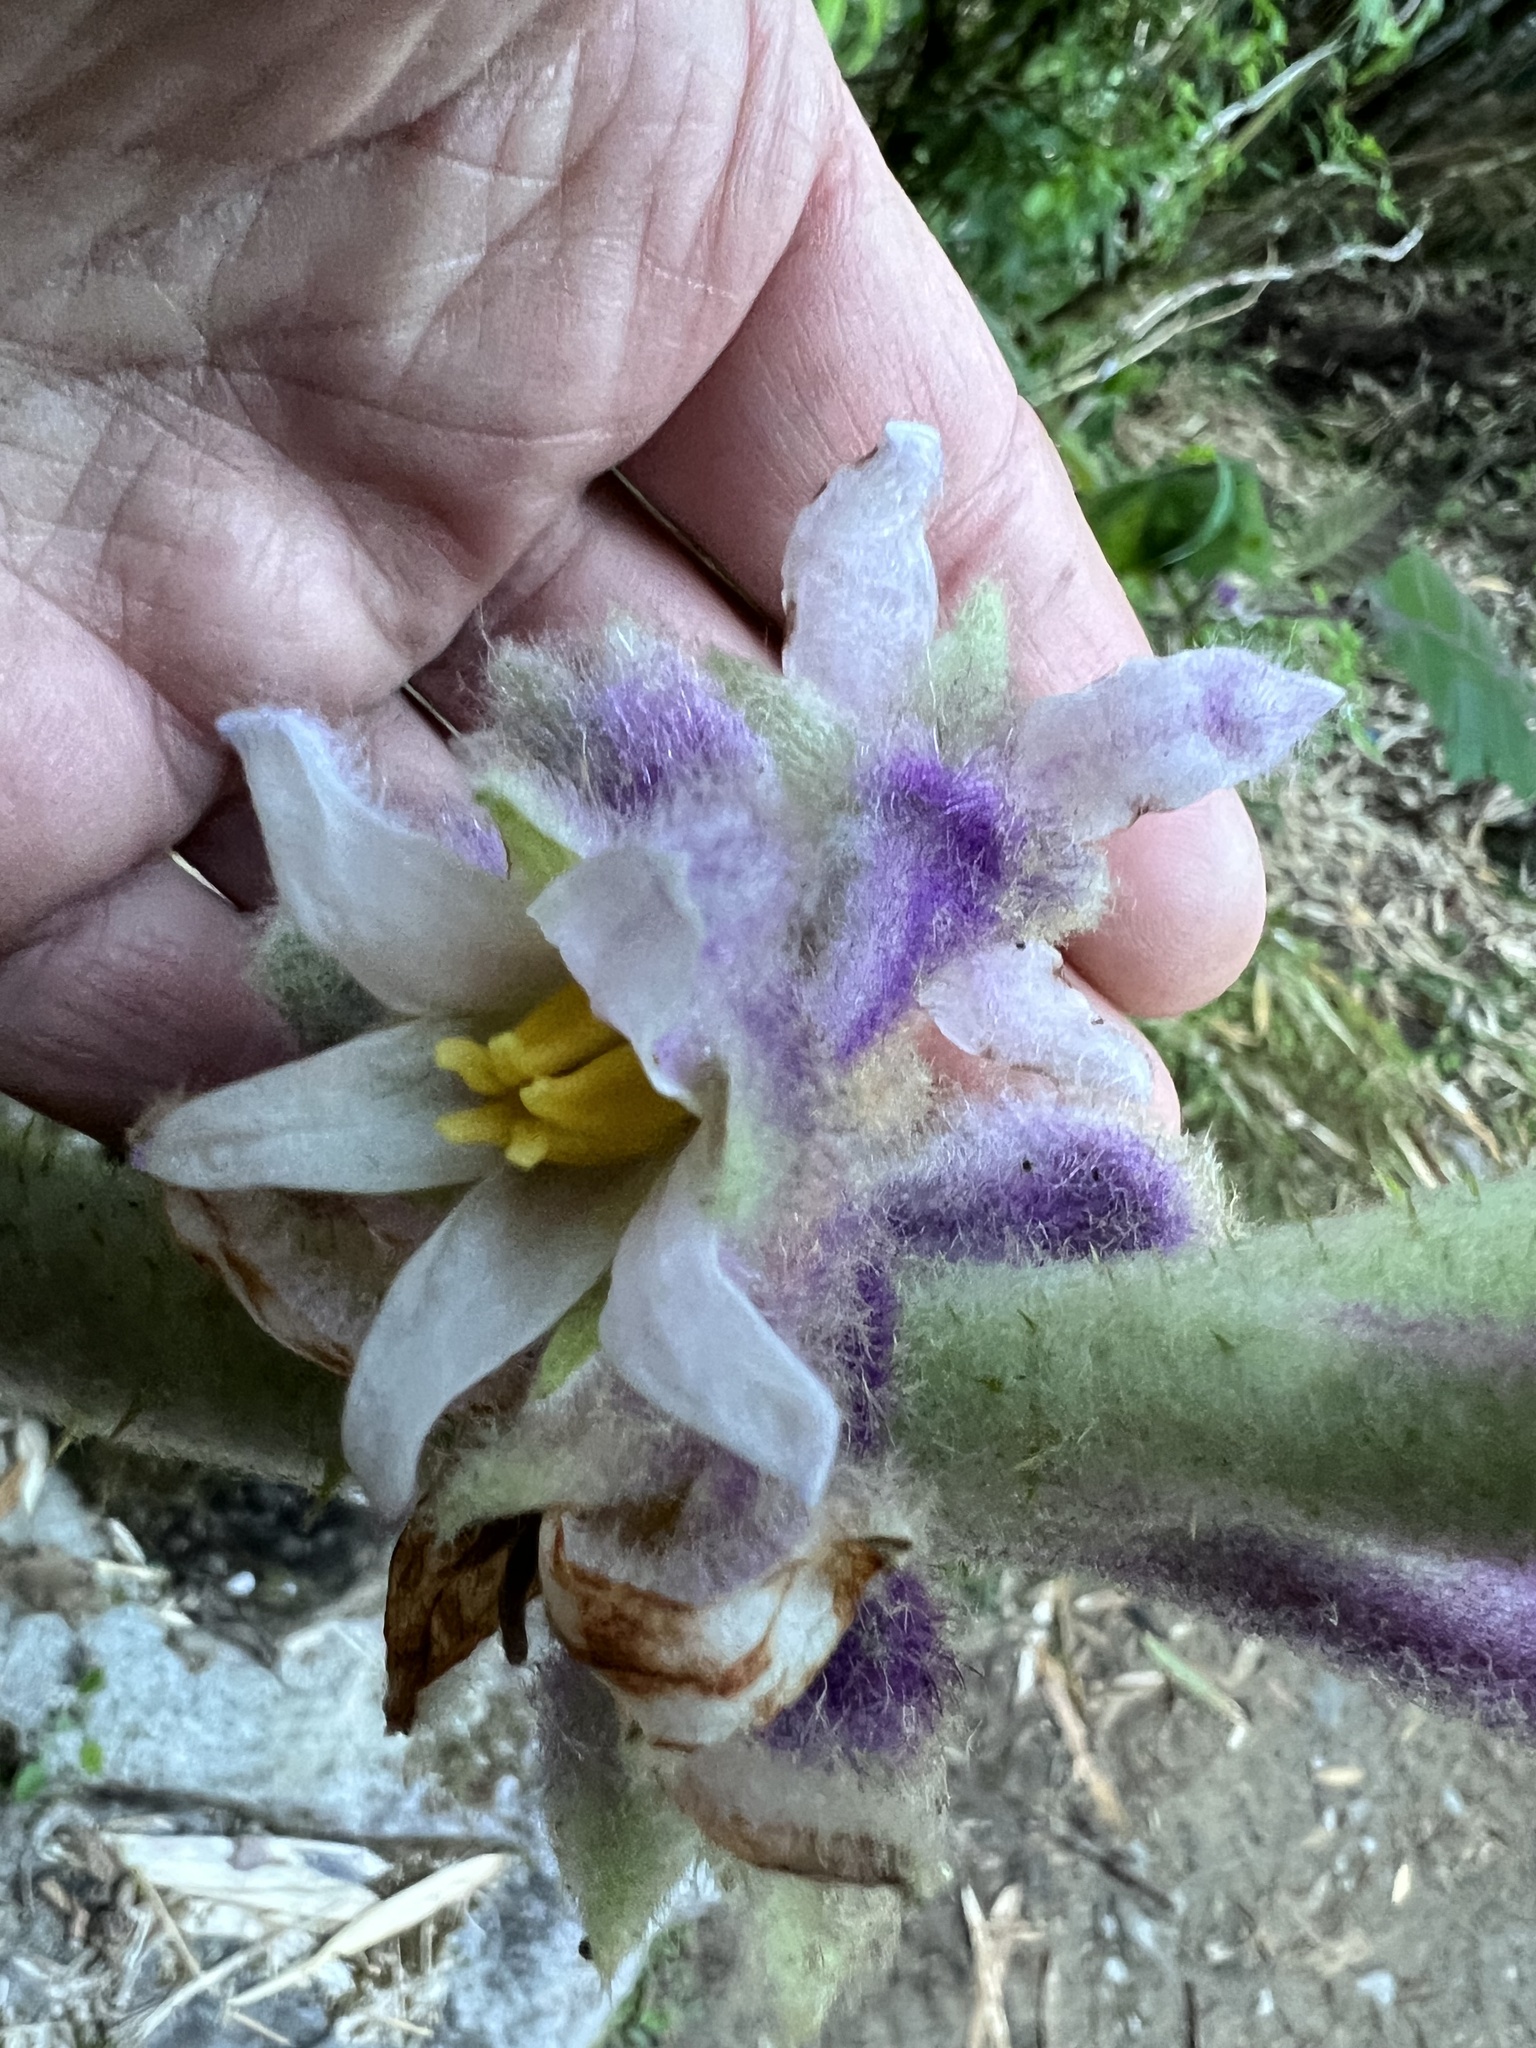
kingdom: Plantae
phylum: Tracheophyta
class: Magnoliopsida
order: Solanales
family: Solanaceae
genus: Solanum
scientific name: Solanum quitoense
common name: Quito-orange
